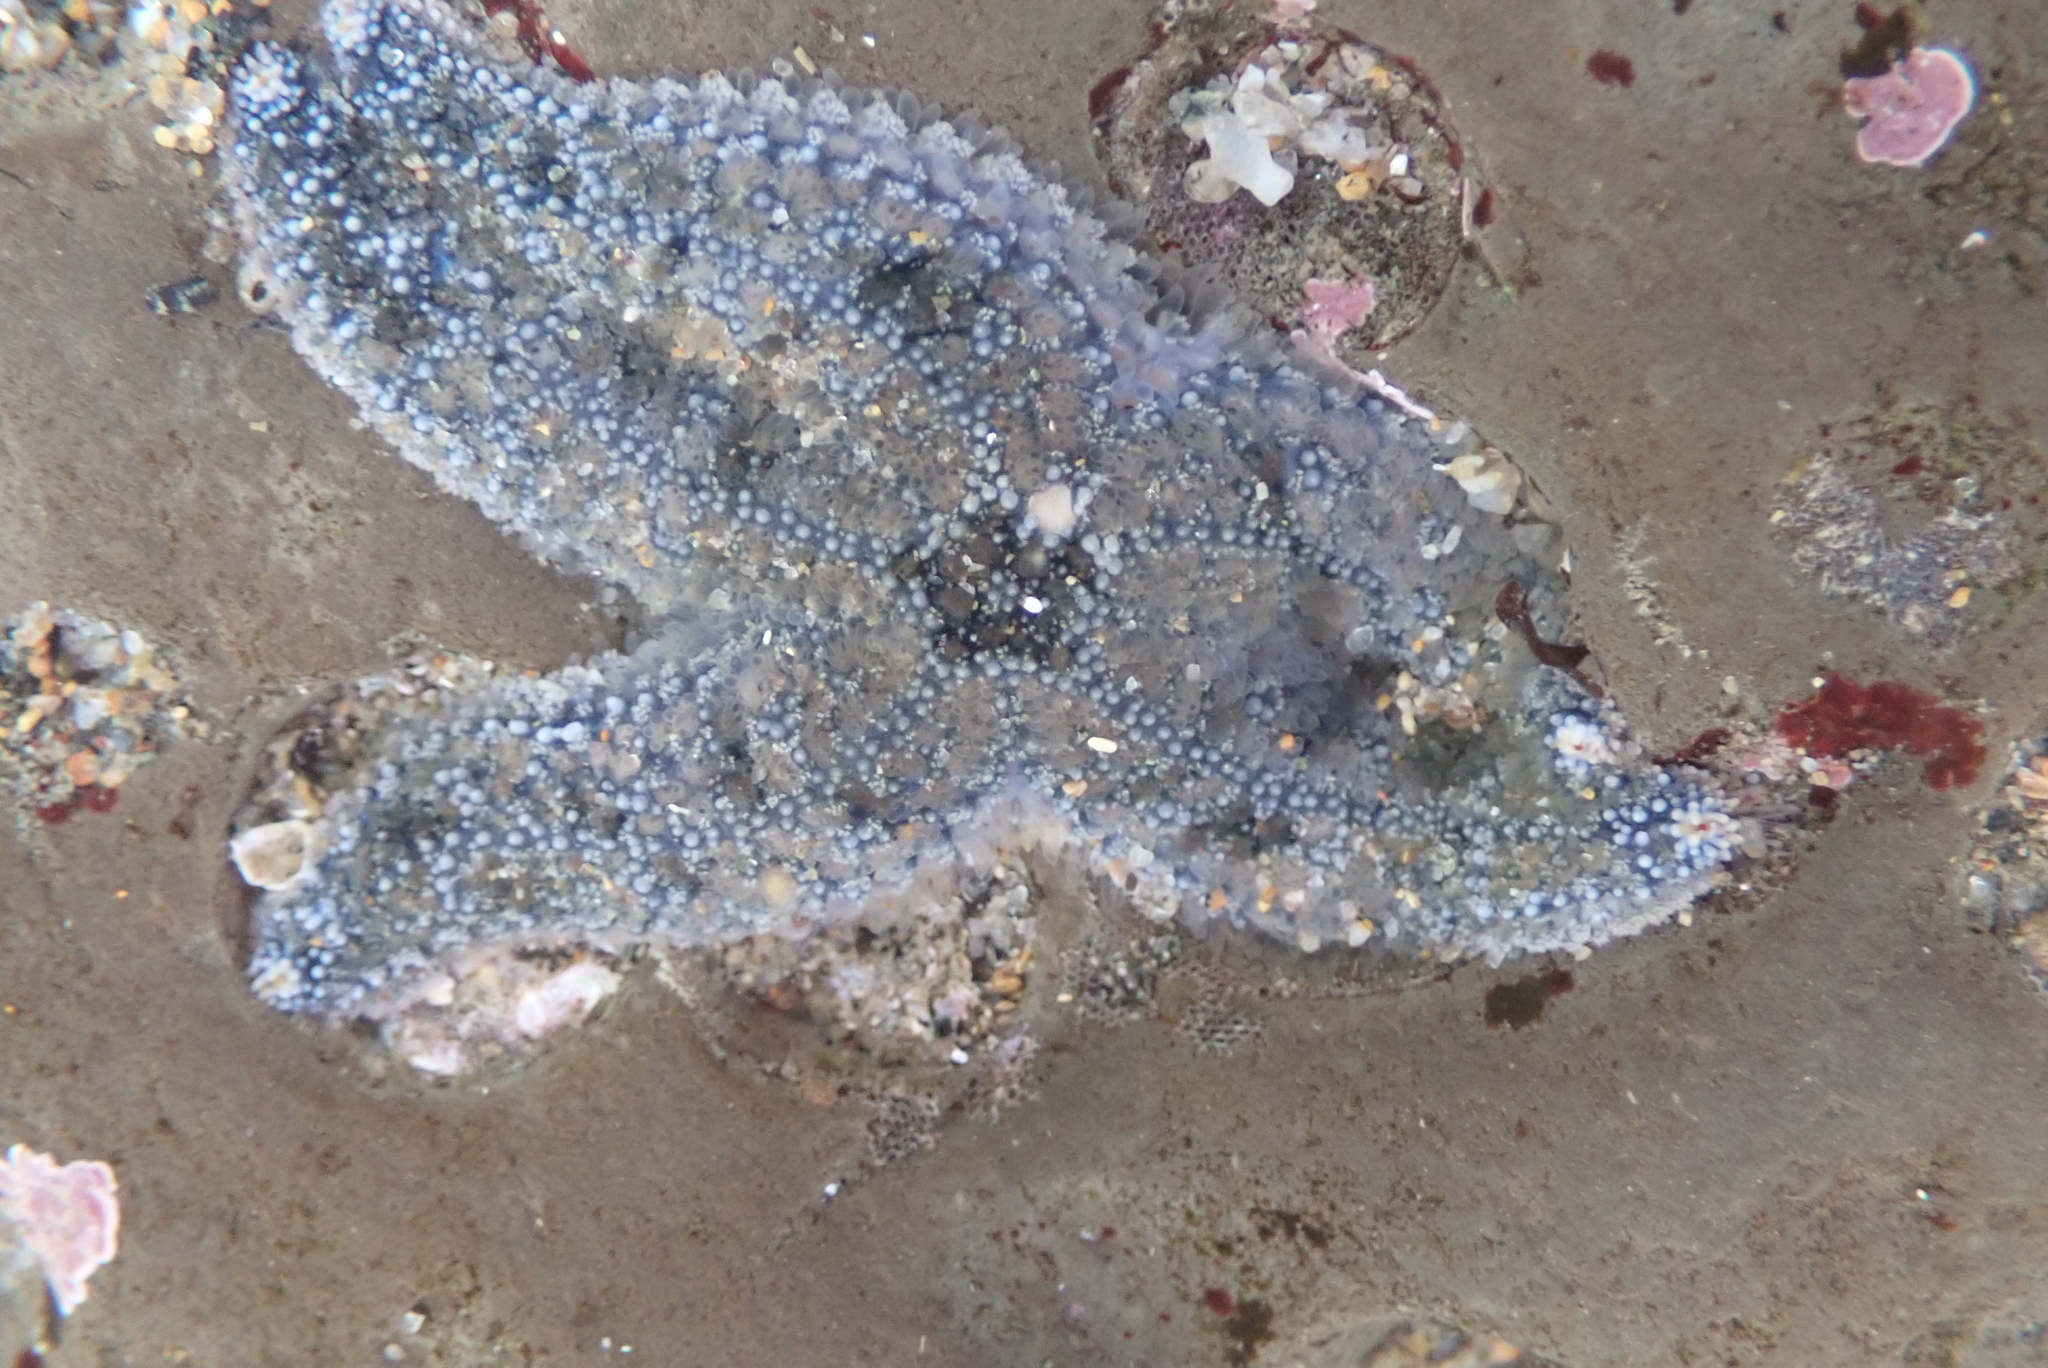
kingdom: Animalia
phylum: Echinodermata
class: Asteroidea
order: Forcipulatida
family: Asteriidae
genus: Pisaster
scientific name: Pisaster ochraceus
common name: Ochre stars
